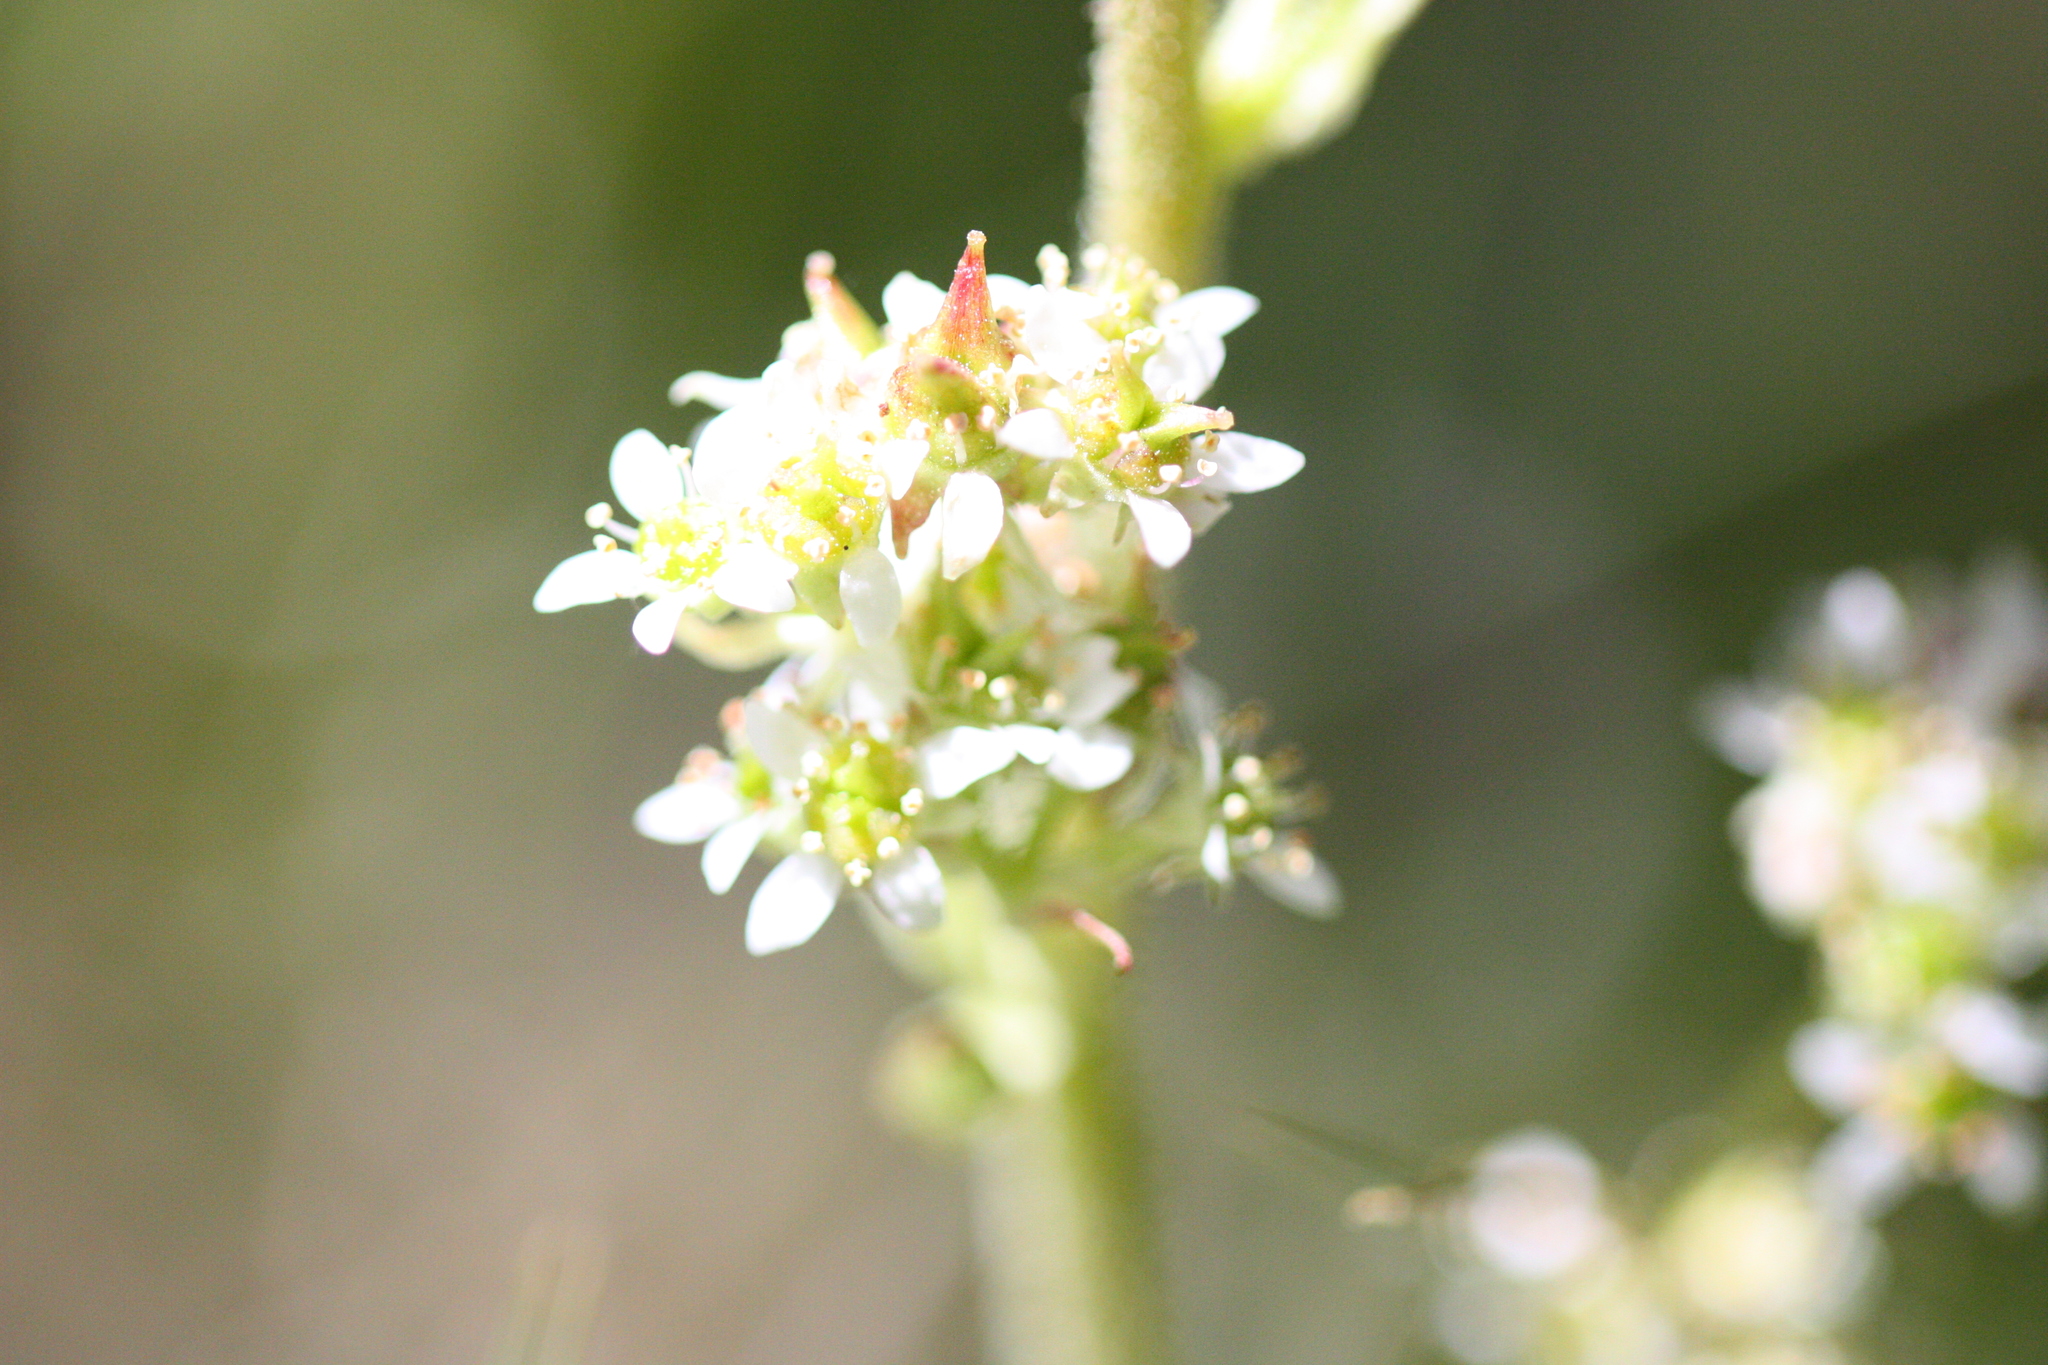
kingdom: Plantae
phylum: Tracheophyta
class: Magnoliopsida
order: Saxifragales
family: Saxifragaceae
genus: Micranthes
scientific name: Micranthes oregana
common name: Bog saxifrage
